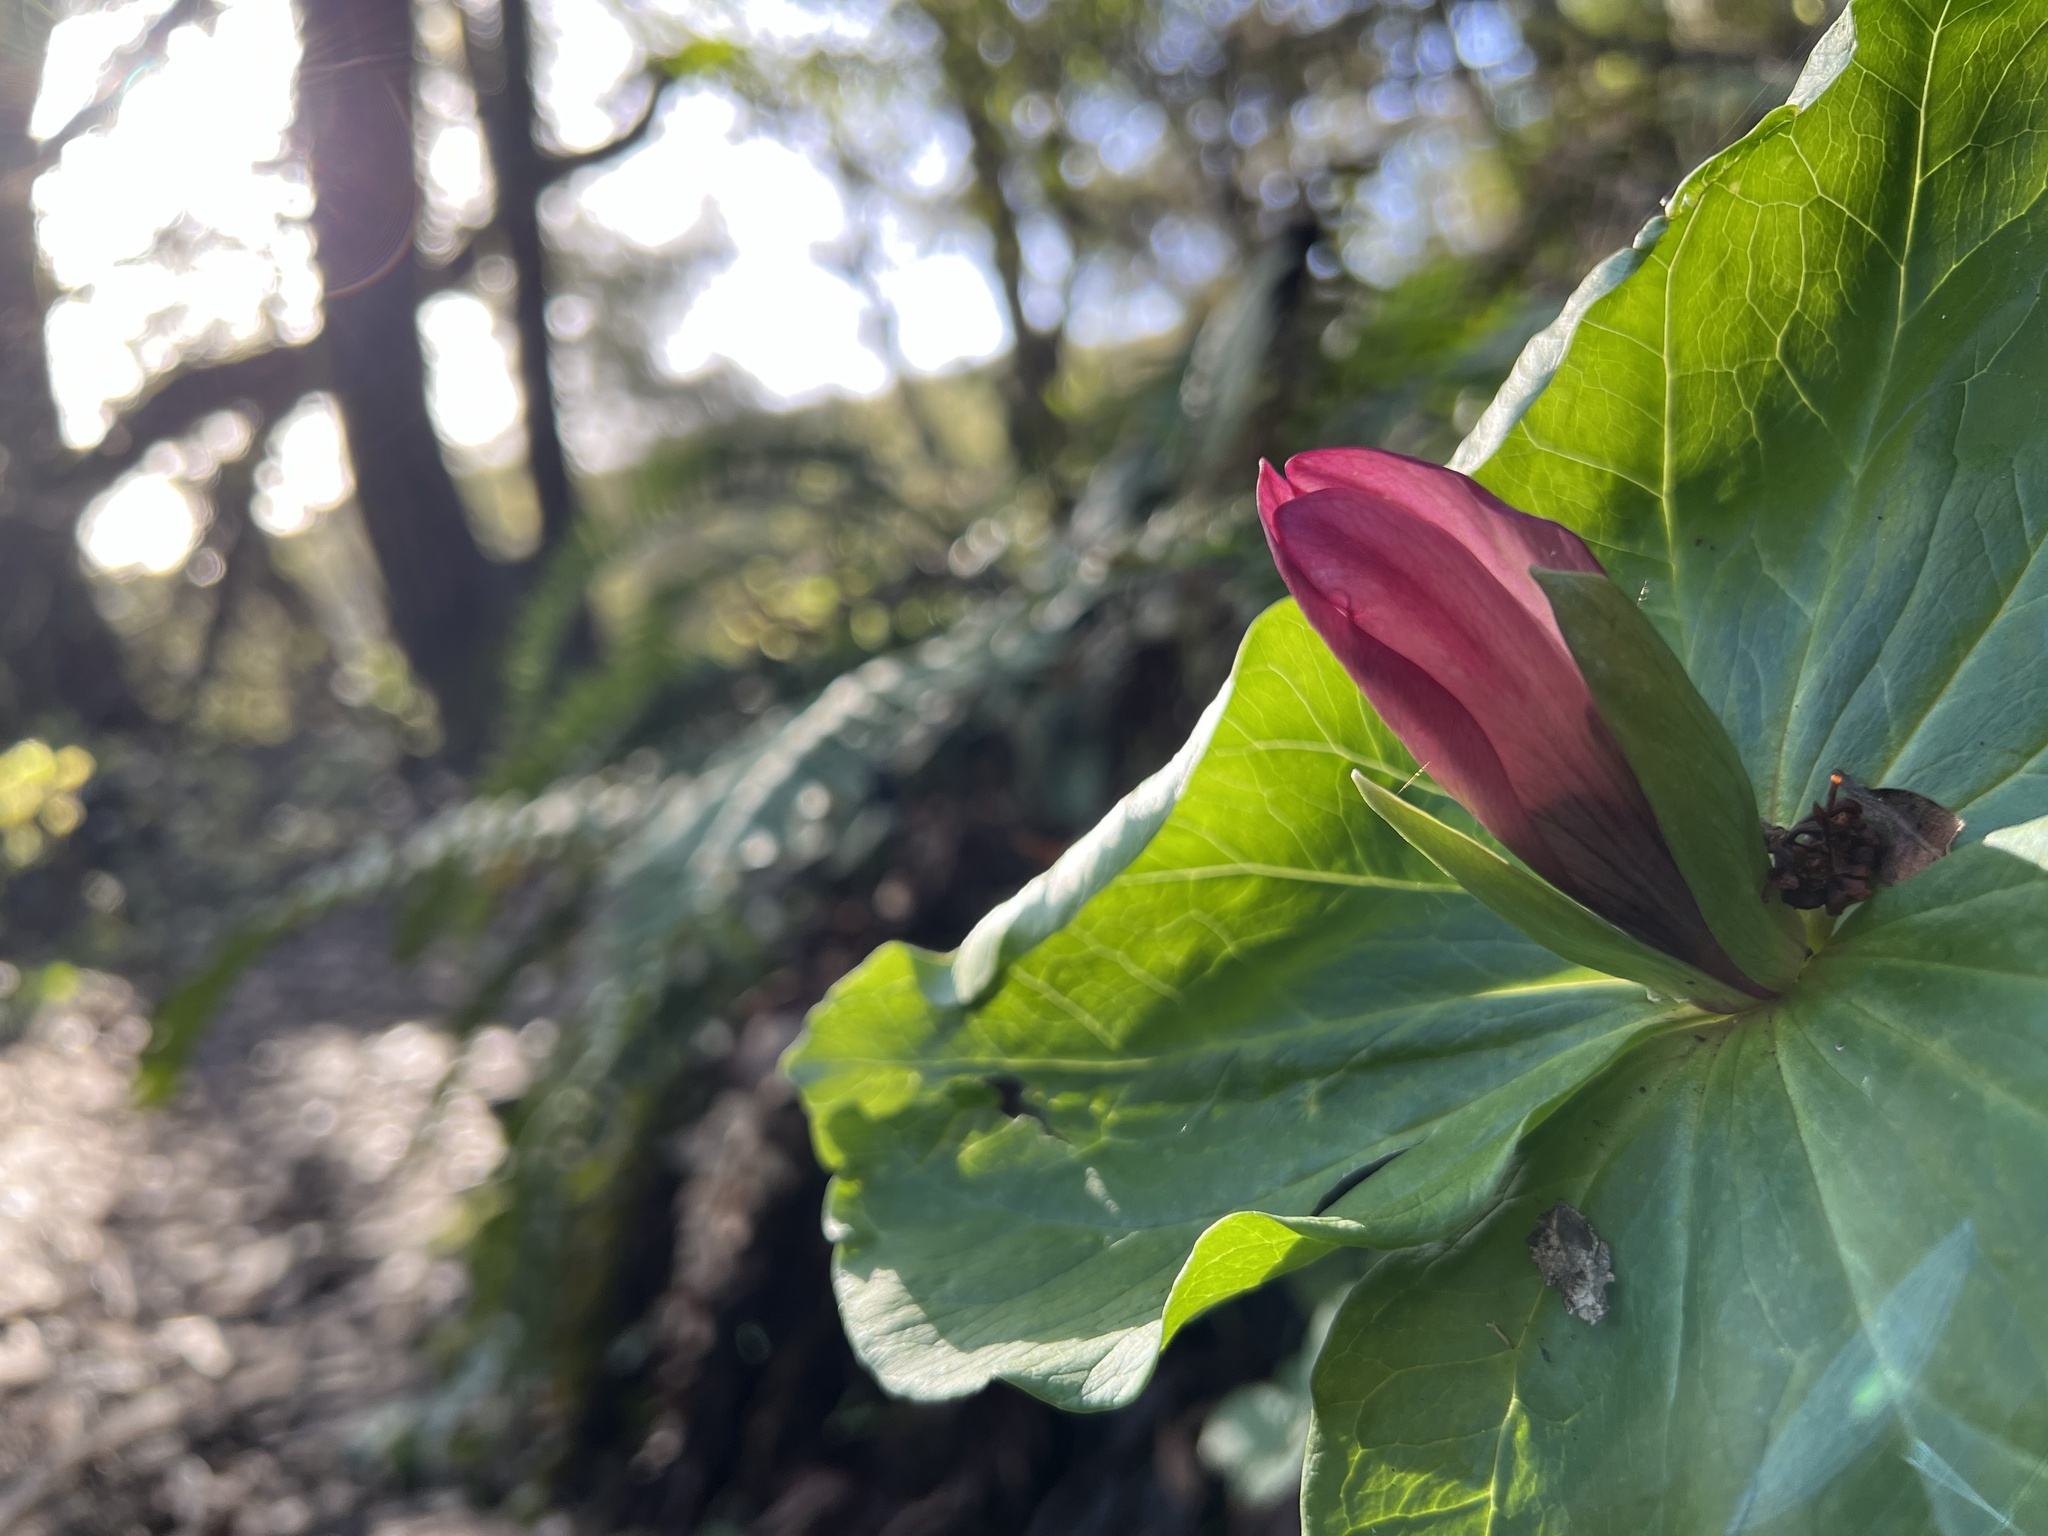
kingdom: Plantae
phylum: Tracheophyta
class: Liliopsida
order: Liliales
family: Melanthiaceae
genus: Trillium
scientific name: Trillium chloropetalum
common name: Giant trillium
